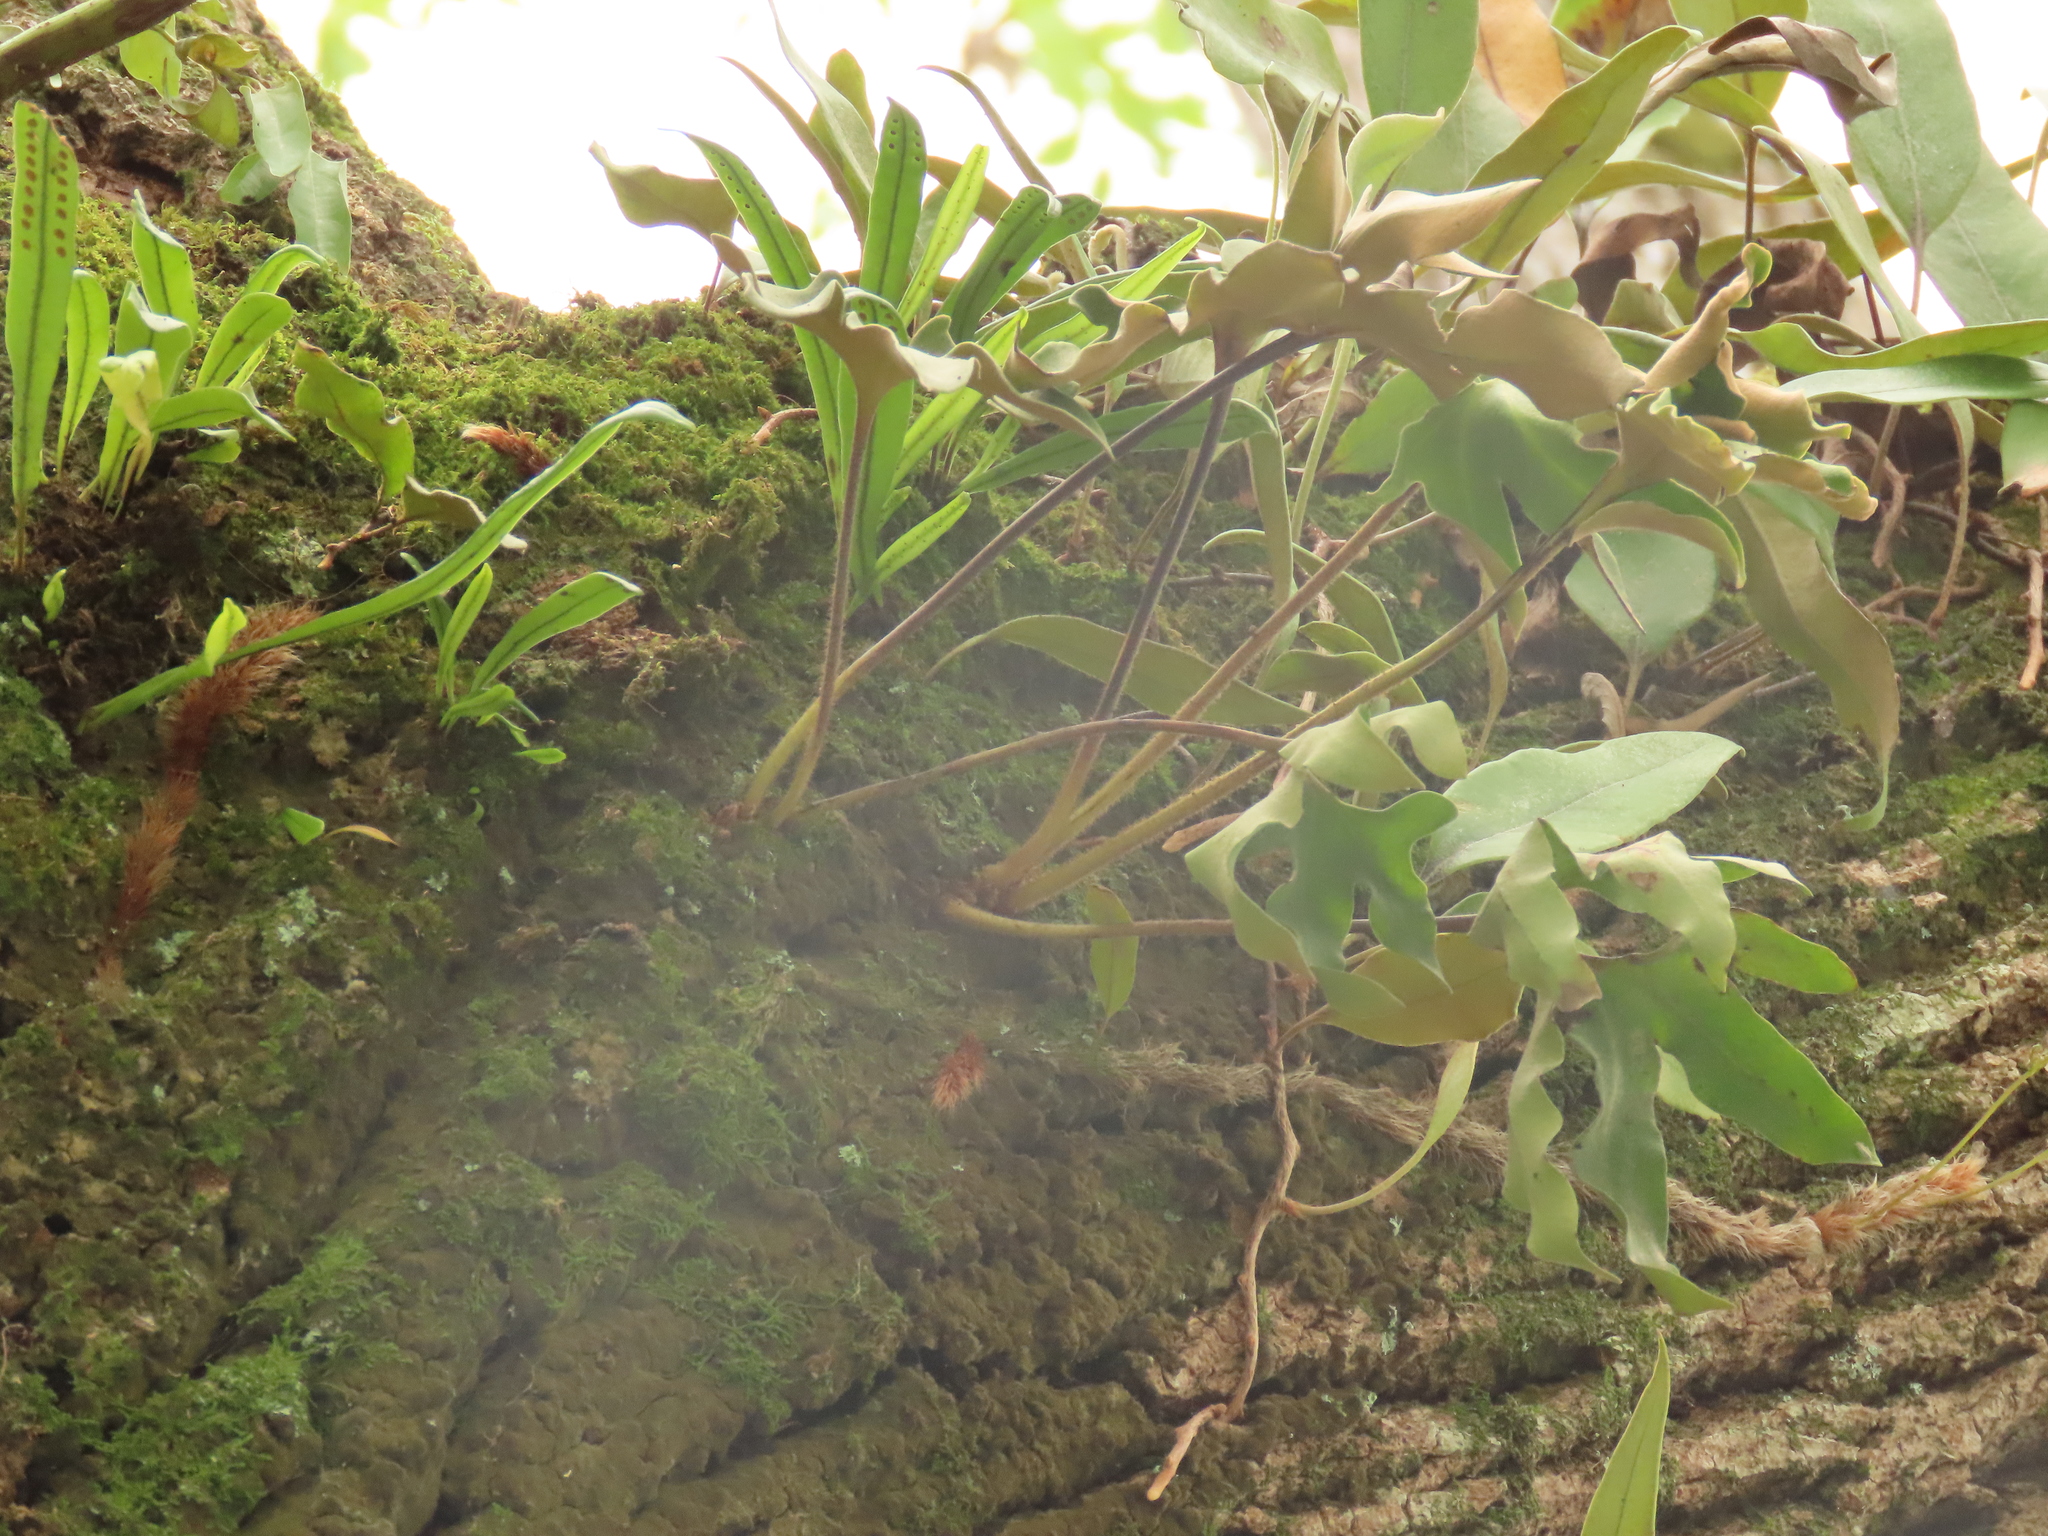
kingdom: Plantae
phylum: Tracheophyta
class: Polypodiopsida
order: Polypodiales
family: Polypodiaceae
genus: Pyrrosia
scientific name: Pyrrosia polydactyla
